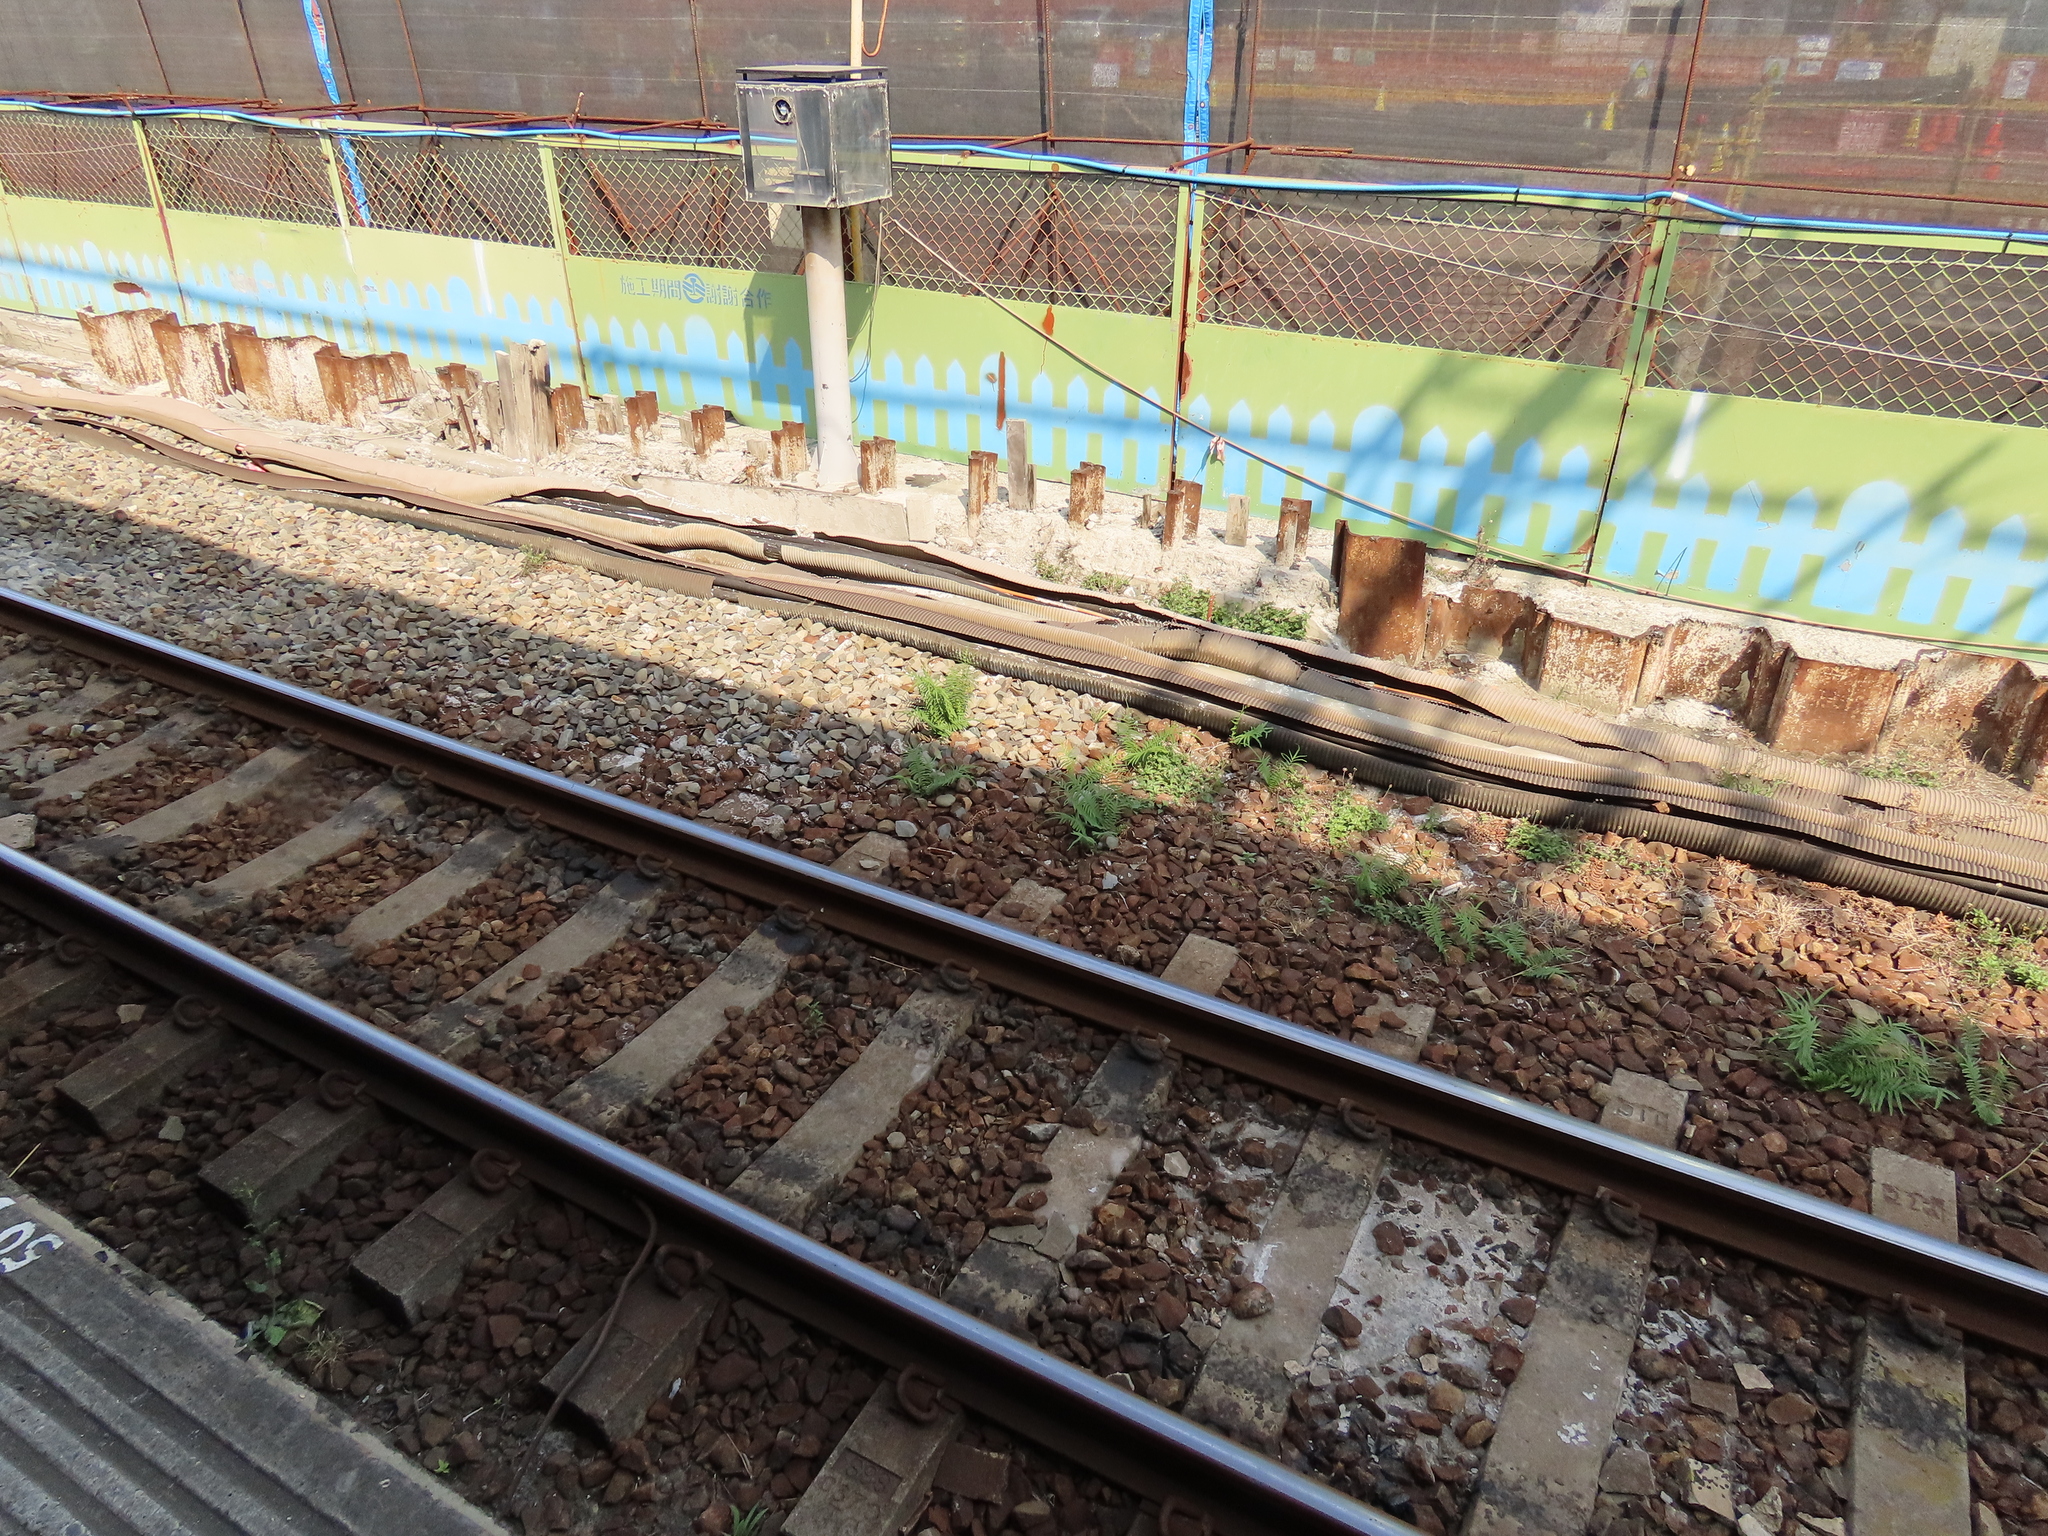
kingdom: Plantae
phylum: Tracheophyta
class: Polypodiopsida
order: Polypodiales
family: Pteridaceae
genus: Pteris
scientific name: Pteris vittata
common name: Ladder brake
